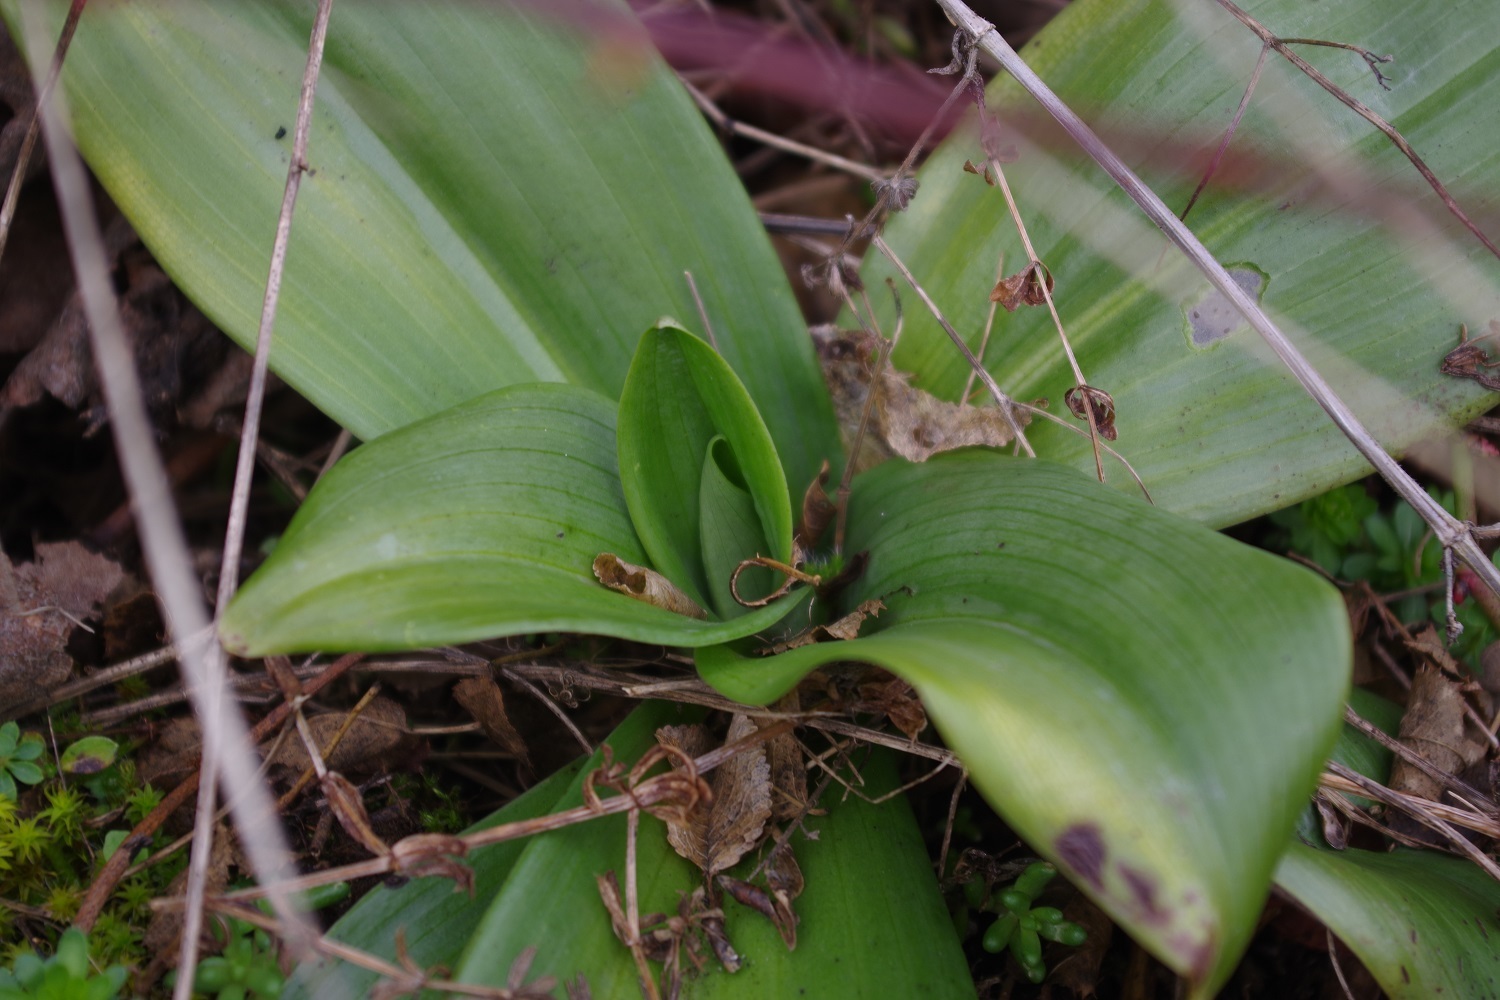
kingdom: Plantae
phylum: Tracheophyta
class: Liliopsida
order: Asparagales
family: Orchidaceae
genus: Himantoglossum
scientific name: Himantoglossum hircinum
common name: Lizard orchid
